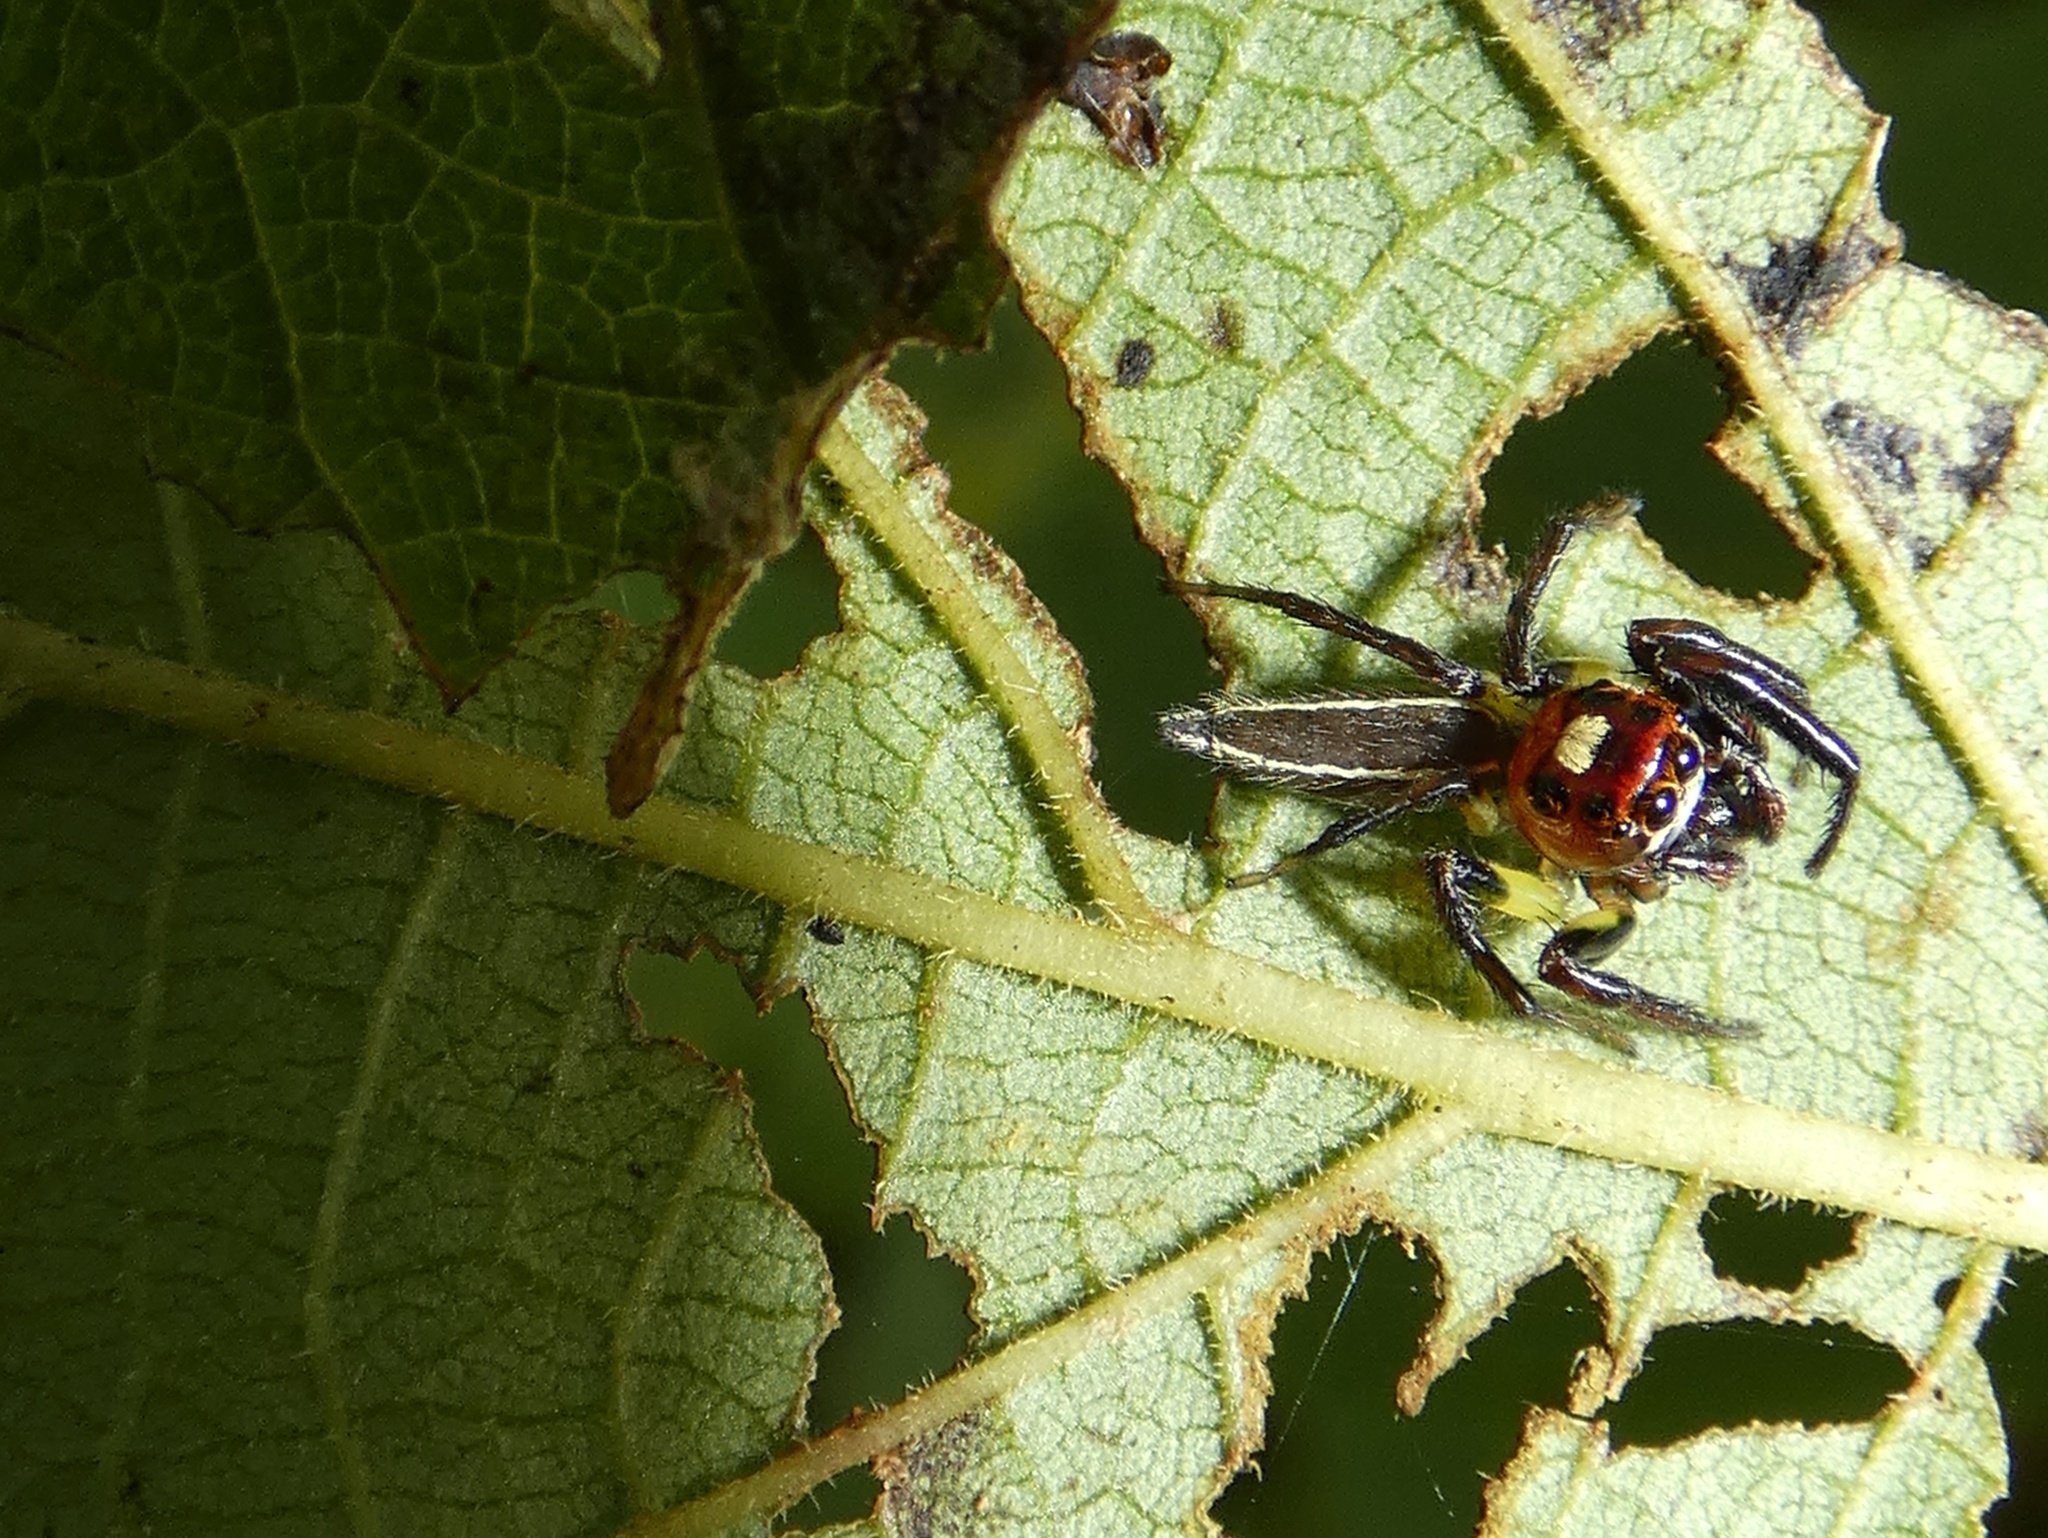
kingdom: Animalia
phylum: Arthropoda
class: Arachnida
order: Araneae
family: Salticidae
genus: Colonus
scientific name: Colonus sylvanus
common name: Jumping spiders
